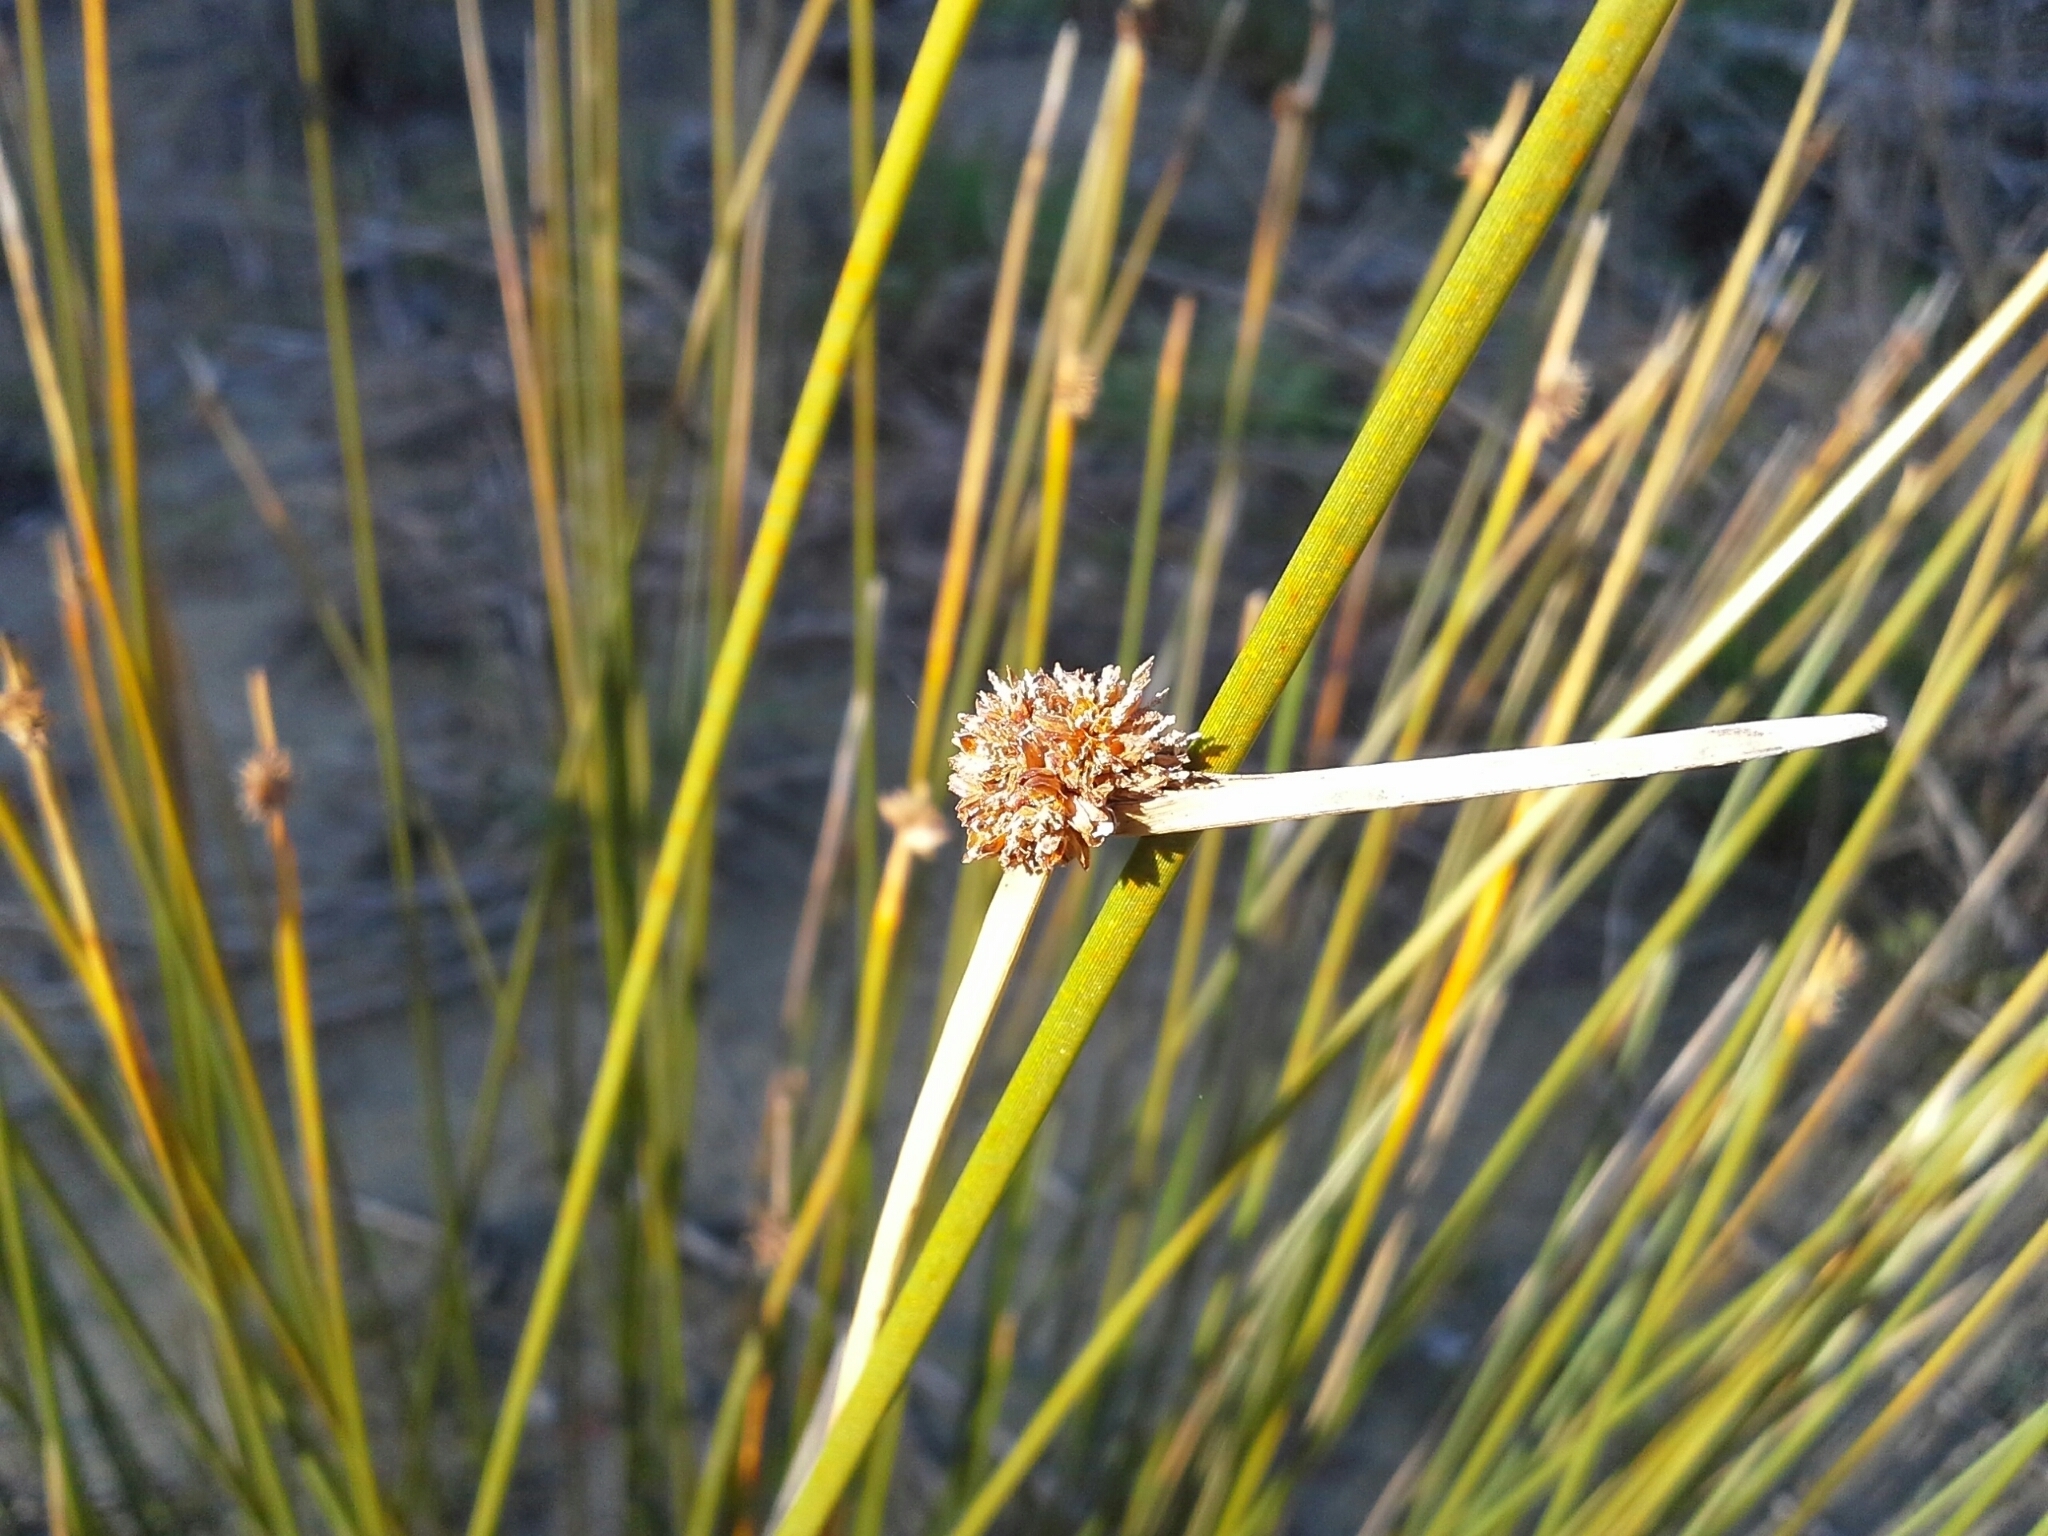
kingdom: Plantae
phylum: Tracheophyta
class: Liliopsida
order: Poales
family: Cyperaceae
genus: Ficinia
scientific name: Ficinia nodosa
